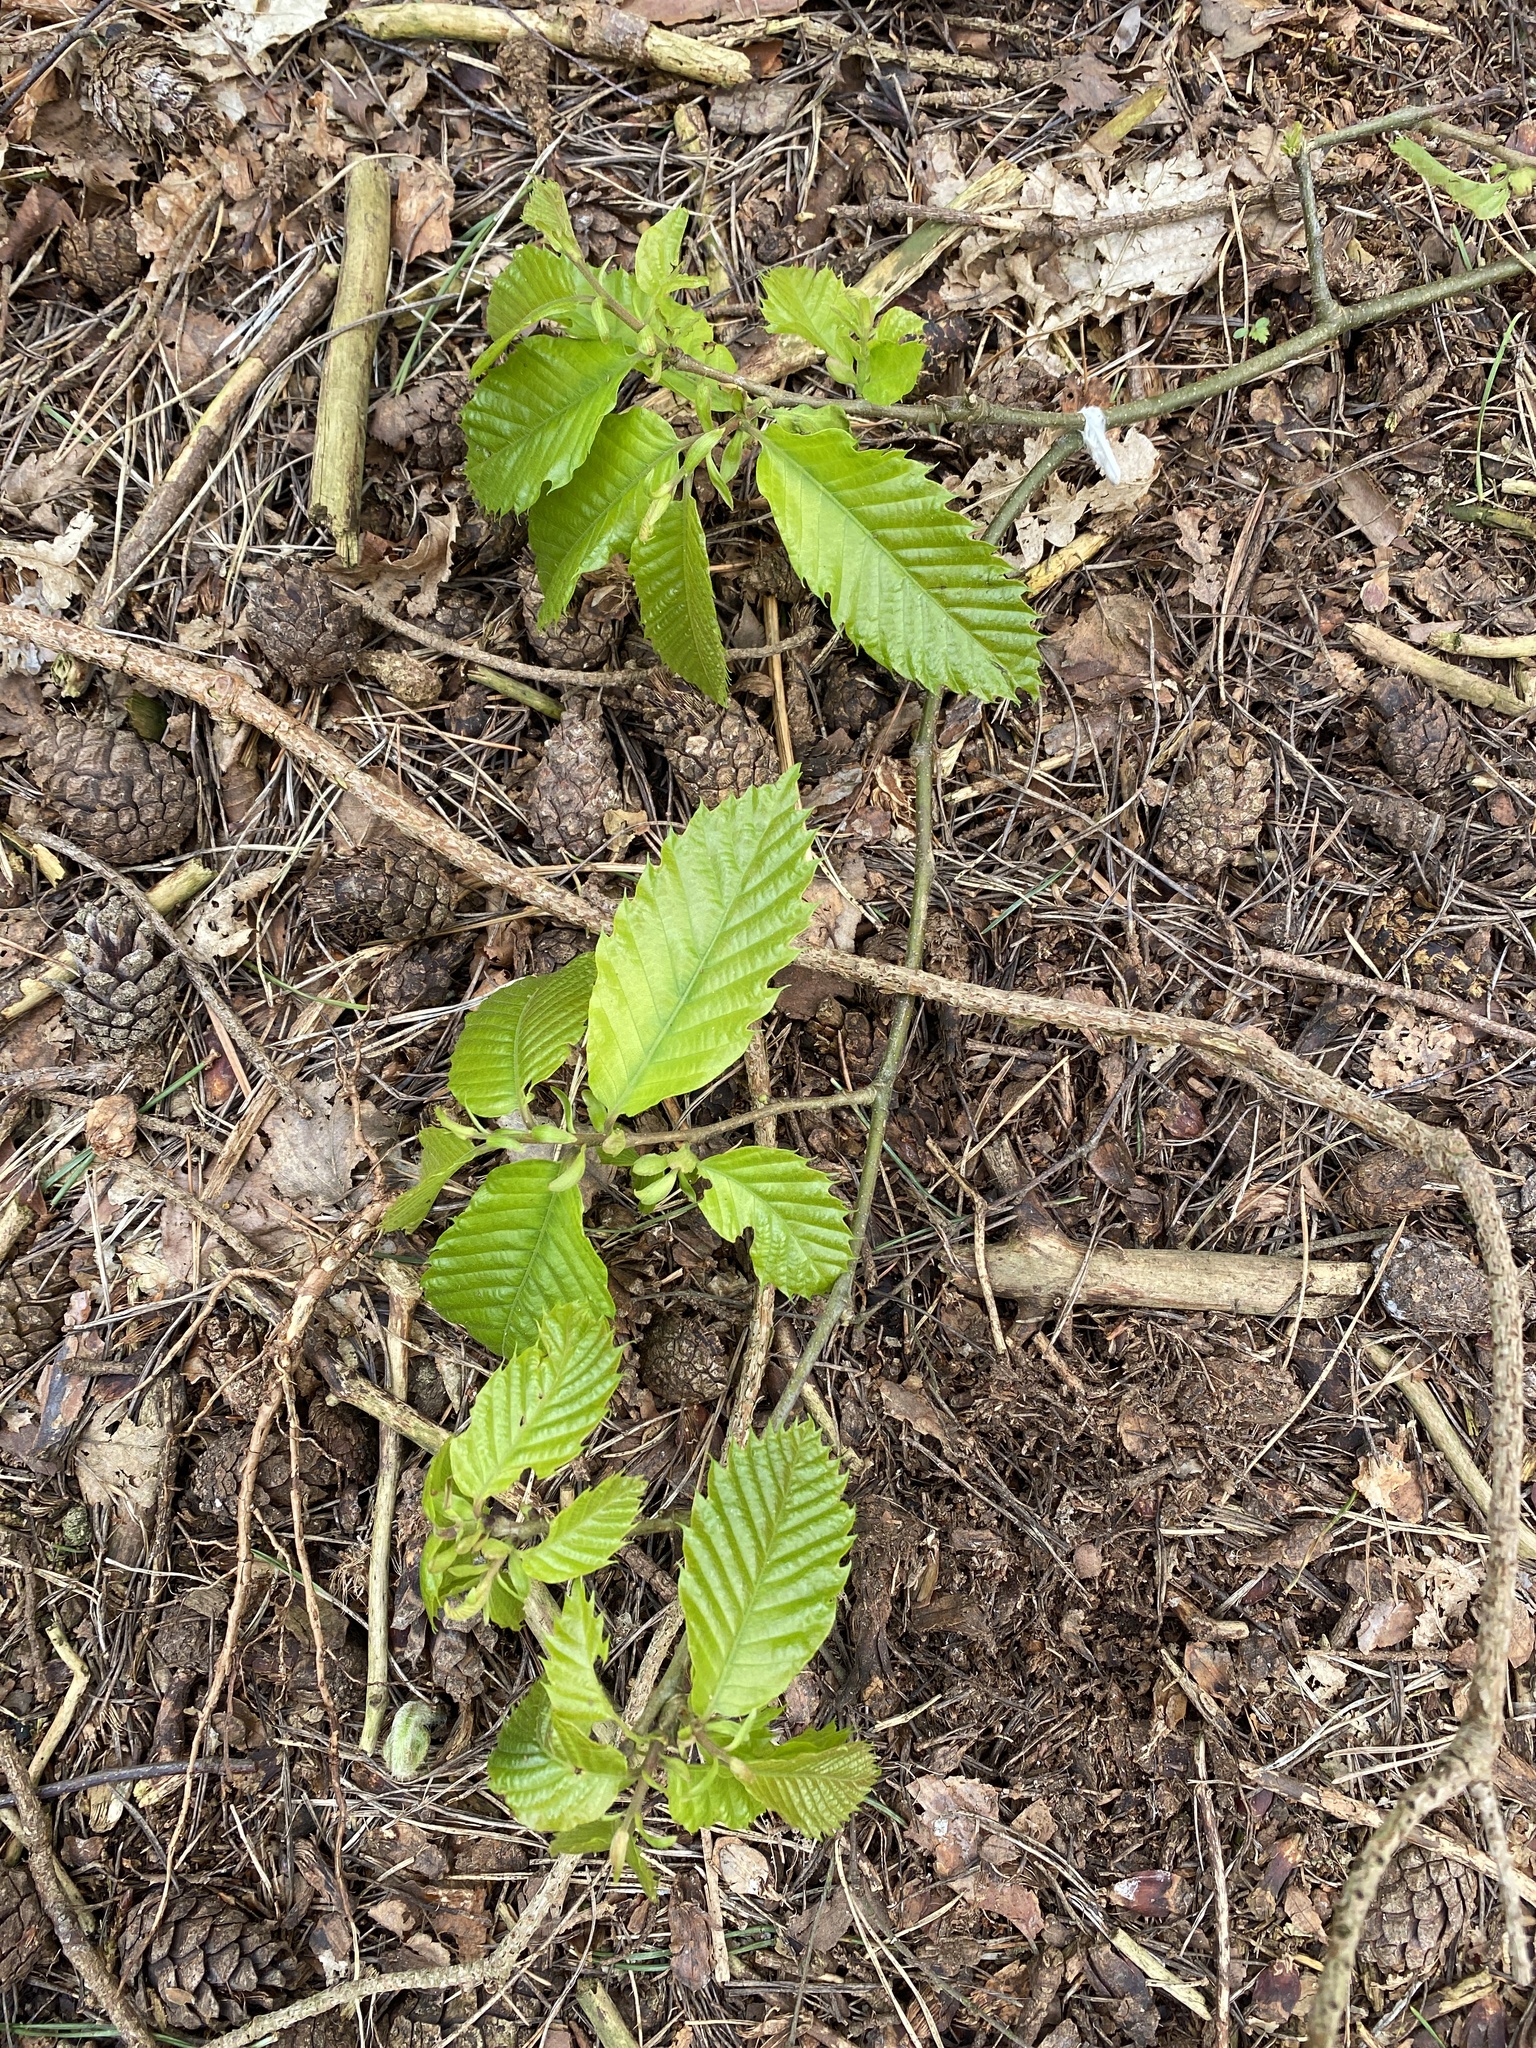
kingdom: Plantae
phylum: Tracheophyta
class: Magnoliopsida
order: Fagales
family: Fagaceae
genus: Castanea
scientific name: Castanea sativa
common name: Sweet chestnut
